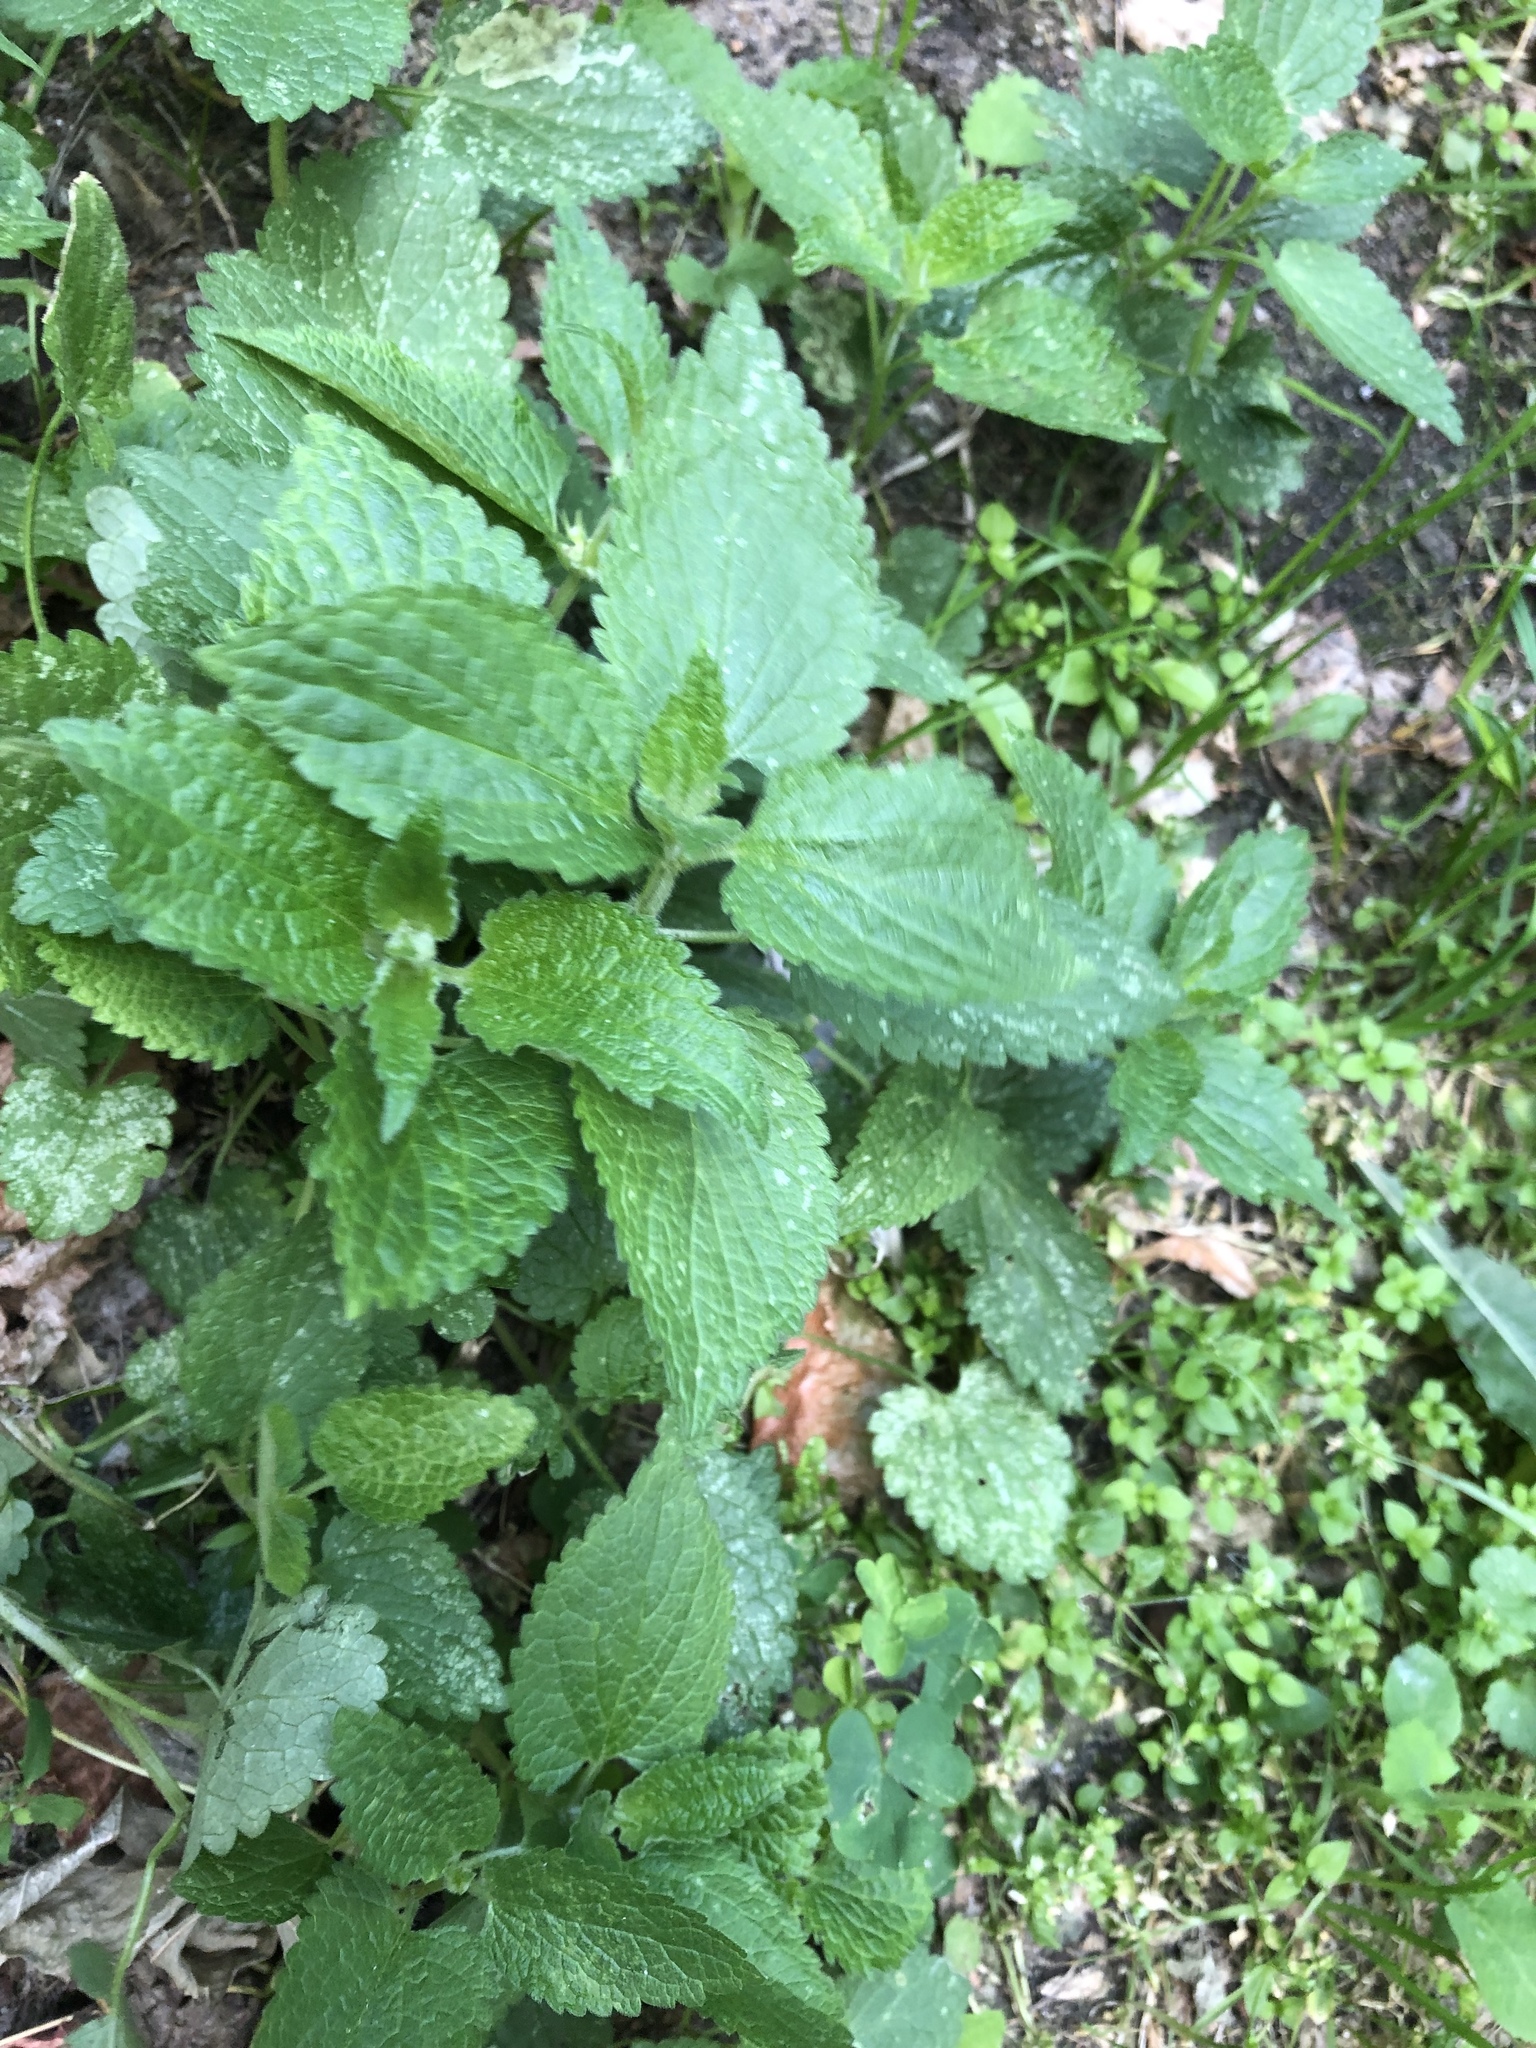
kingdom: Plantae
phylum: Tracheophyta
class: Magnoliopsida
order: Lamiales
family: Lamiaceae
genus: Stachys
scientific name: Stachys sylvatica
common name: Hedge woundwort
